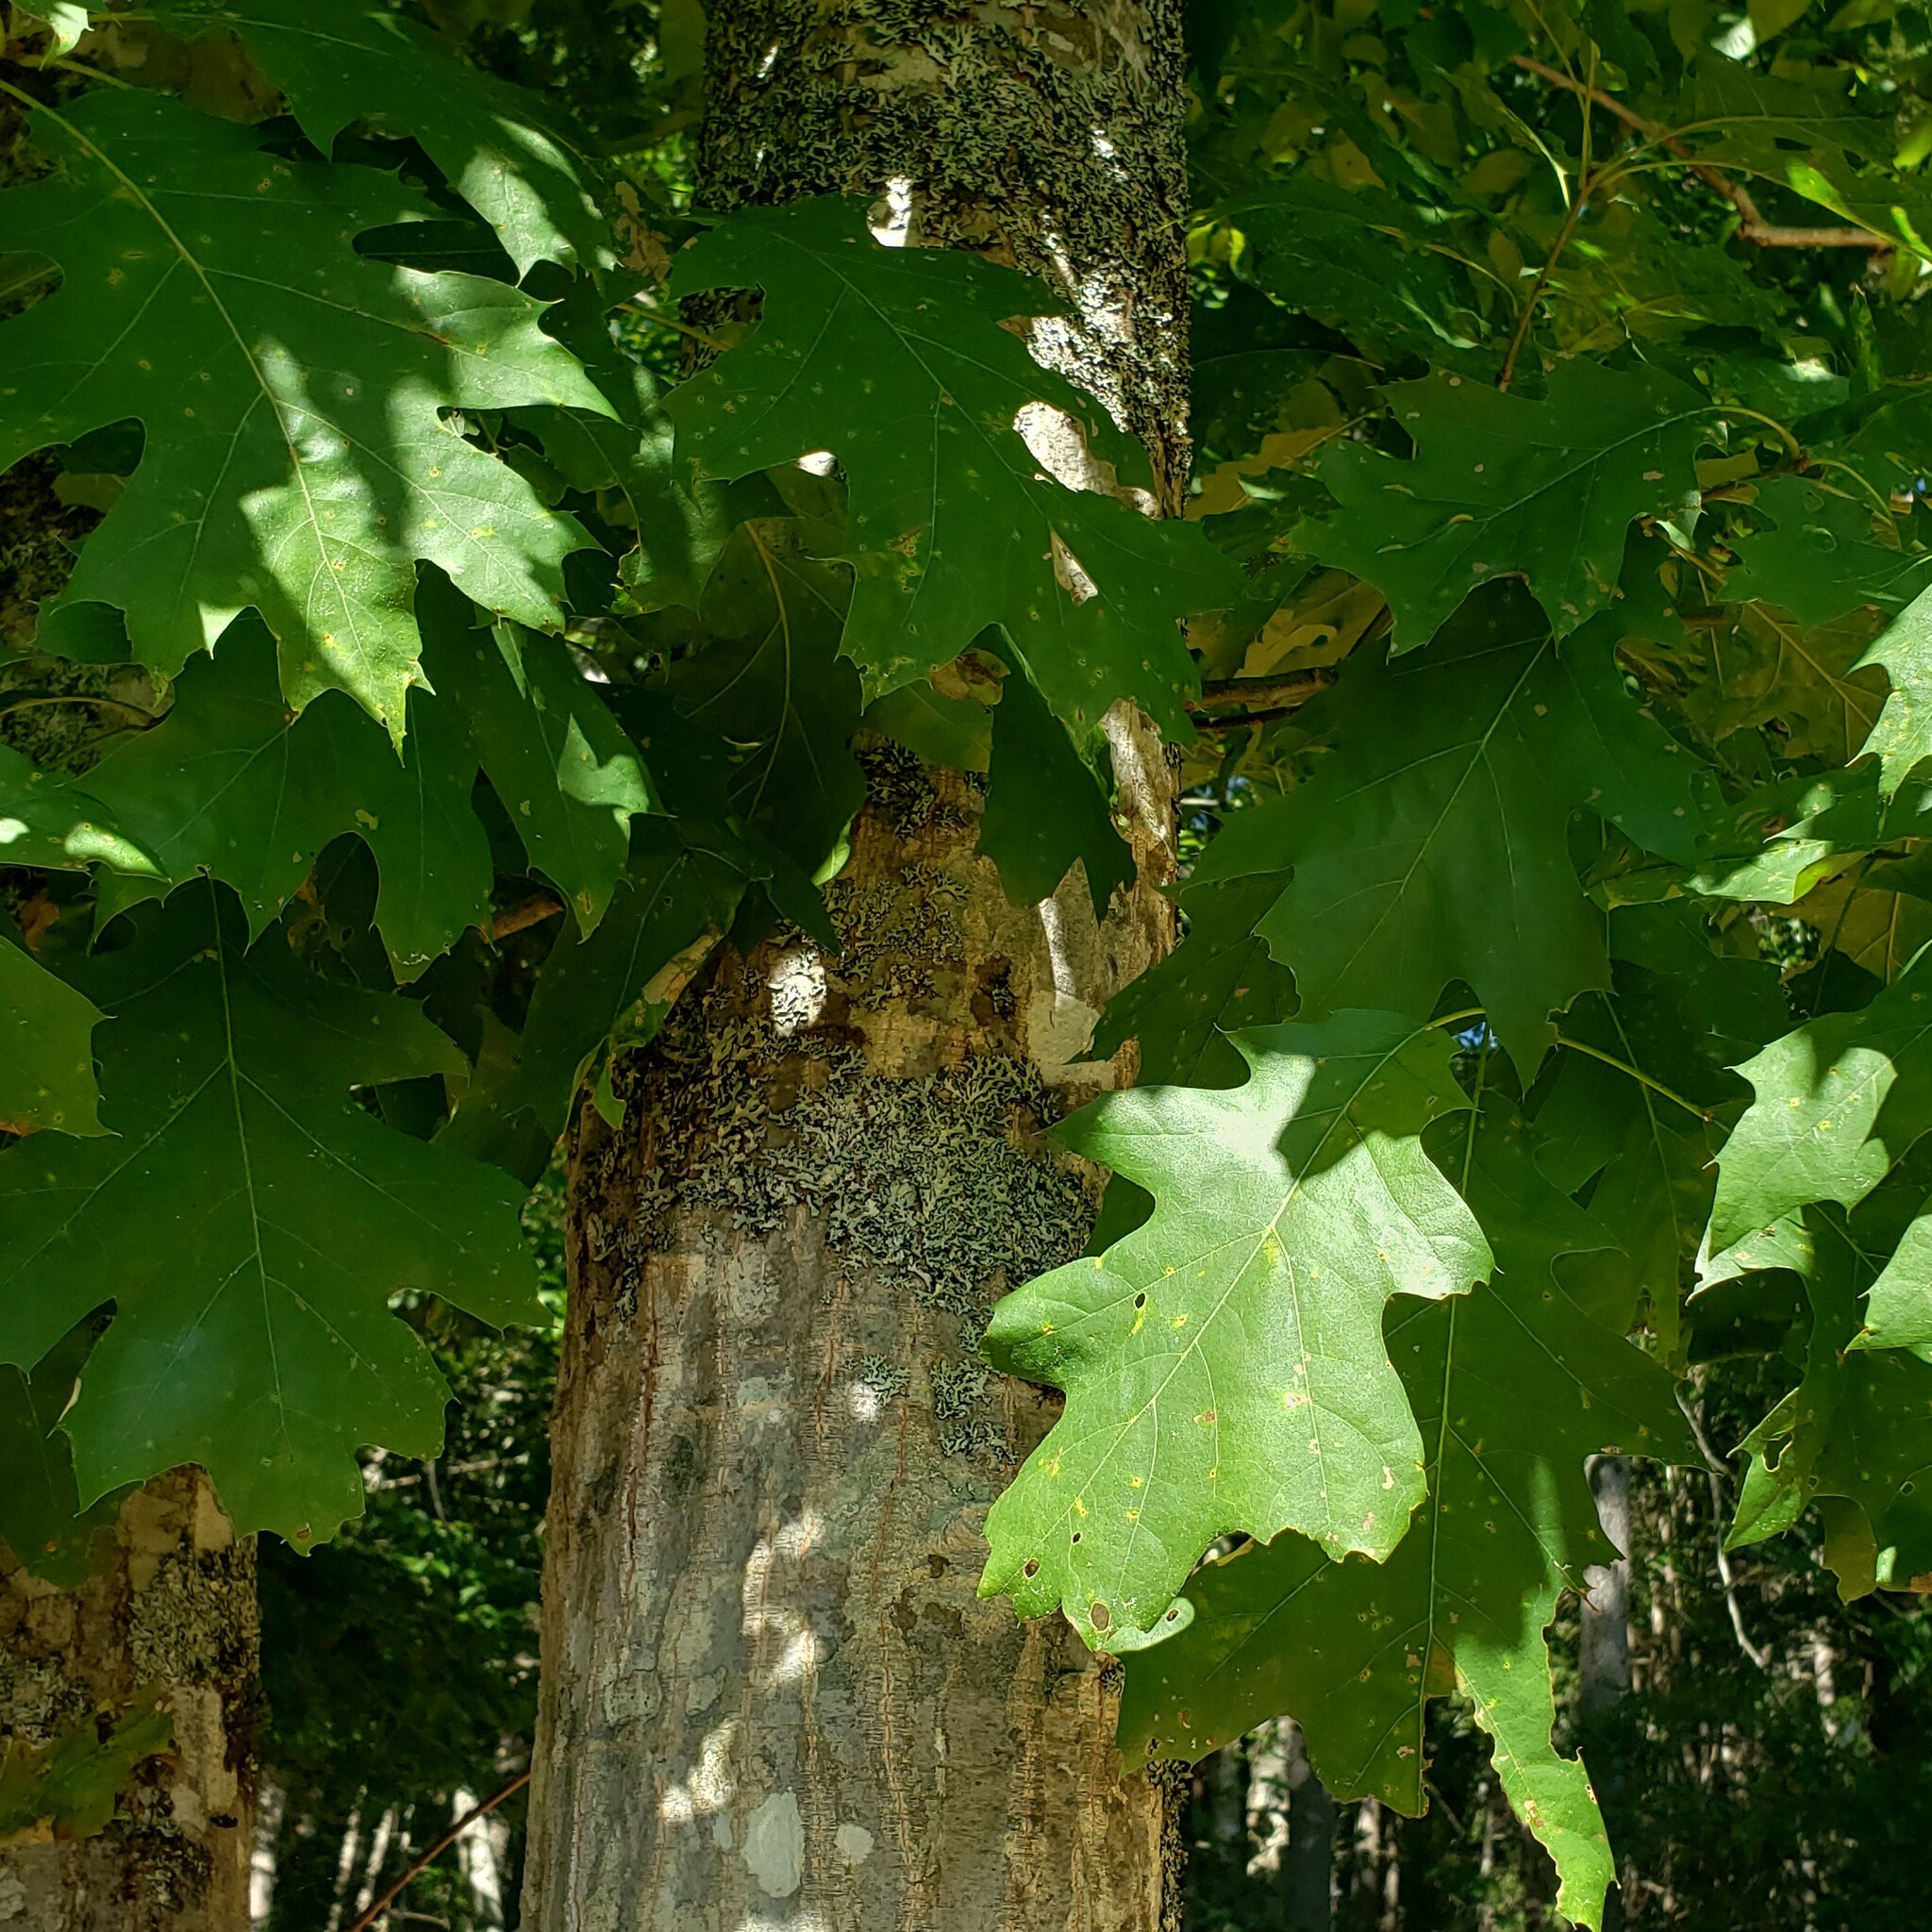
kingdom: Plantae
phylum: Tracheophyta
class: Magnoliopsida
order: Fagales
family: Fagaceae
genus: Quercus
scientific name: Quercus rubra
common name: Red oak
